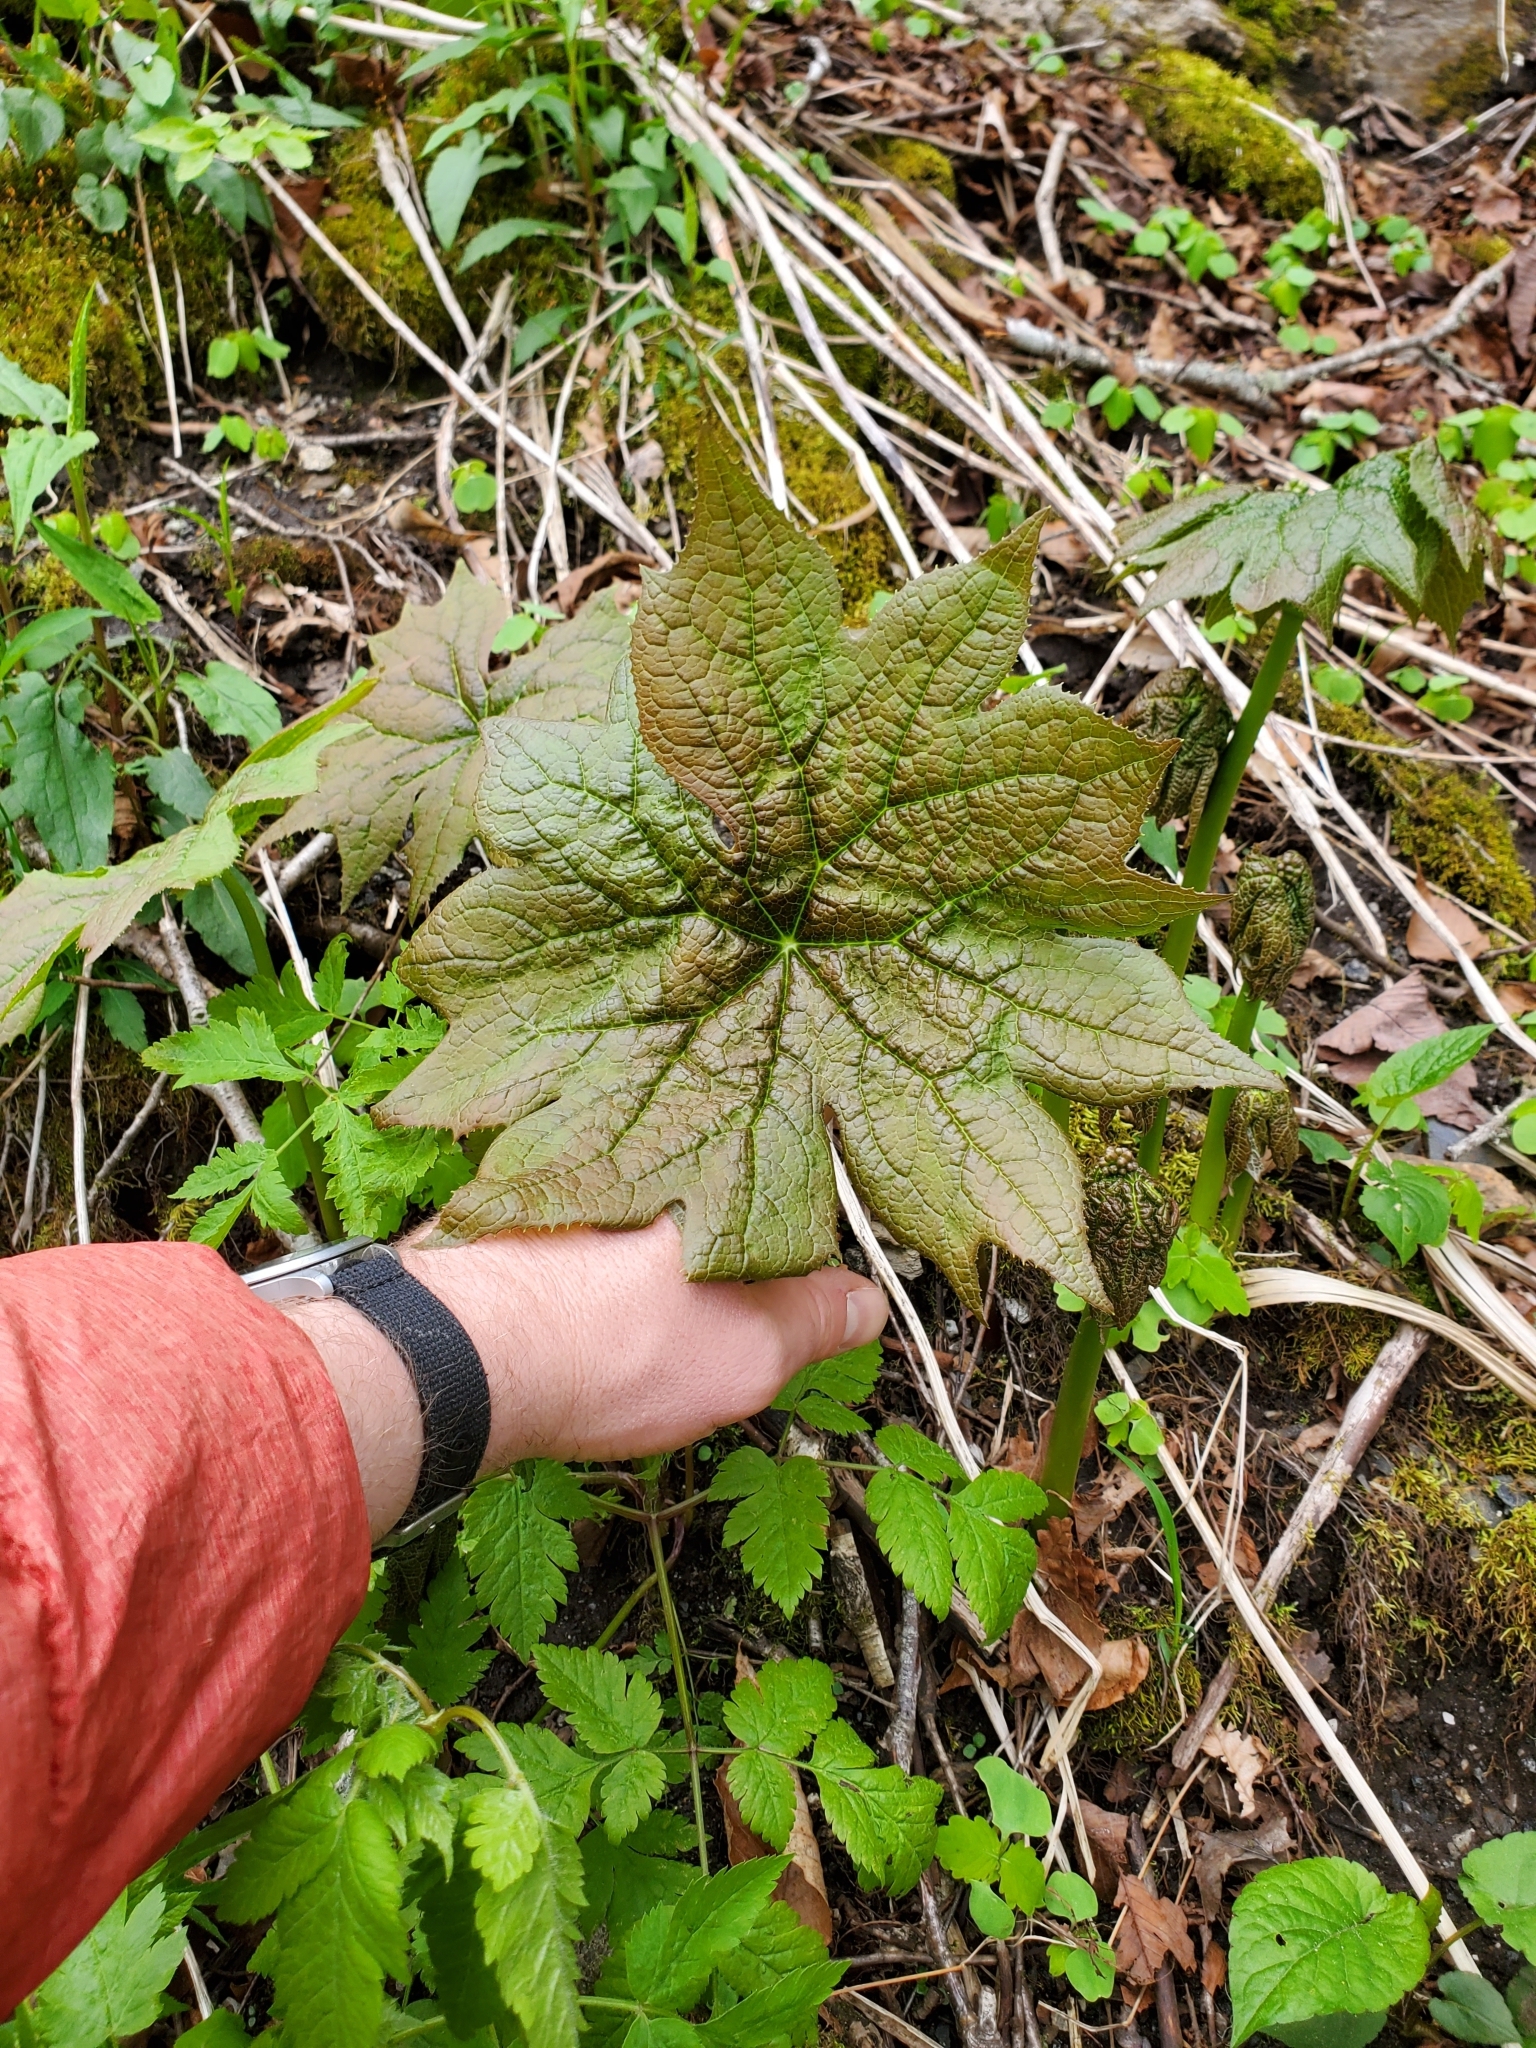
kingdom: Plantae
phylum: Tracheophyta
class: Magnoliopsida
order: Ranunculales
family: Berberidaceae
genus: Diphylleia
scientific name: Diphylleia cymosa
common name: Umbrella-leaf
